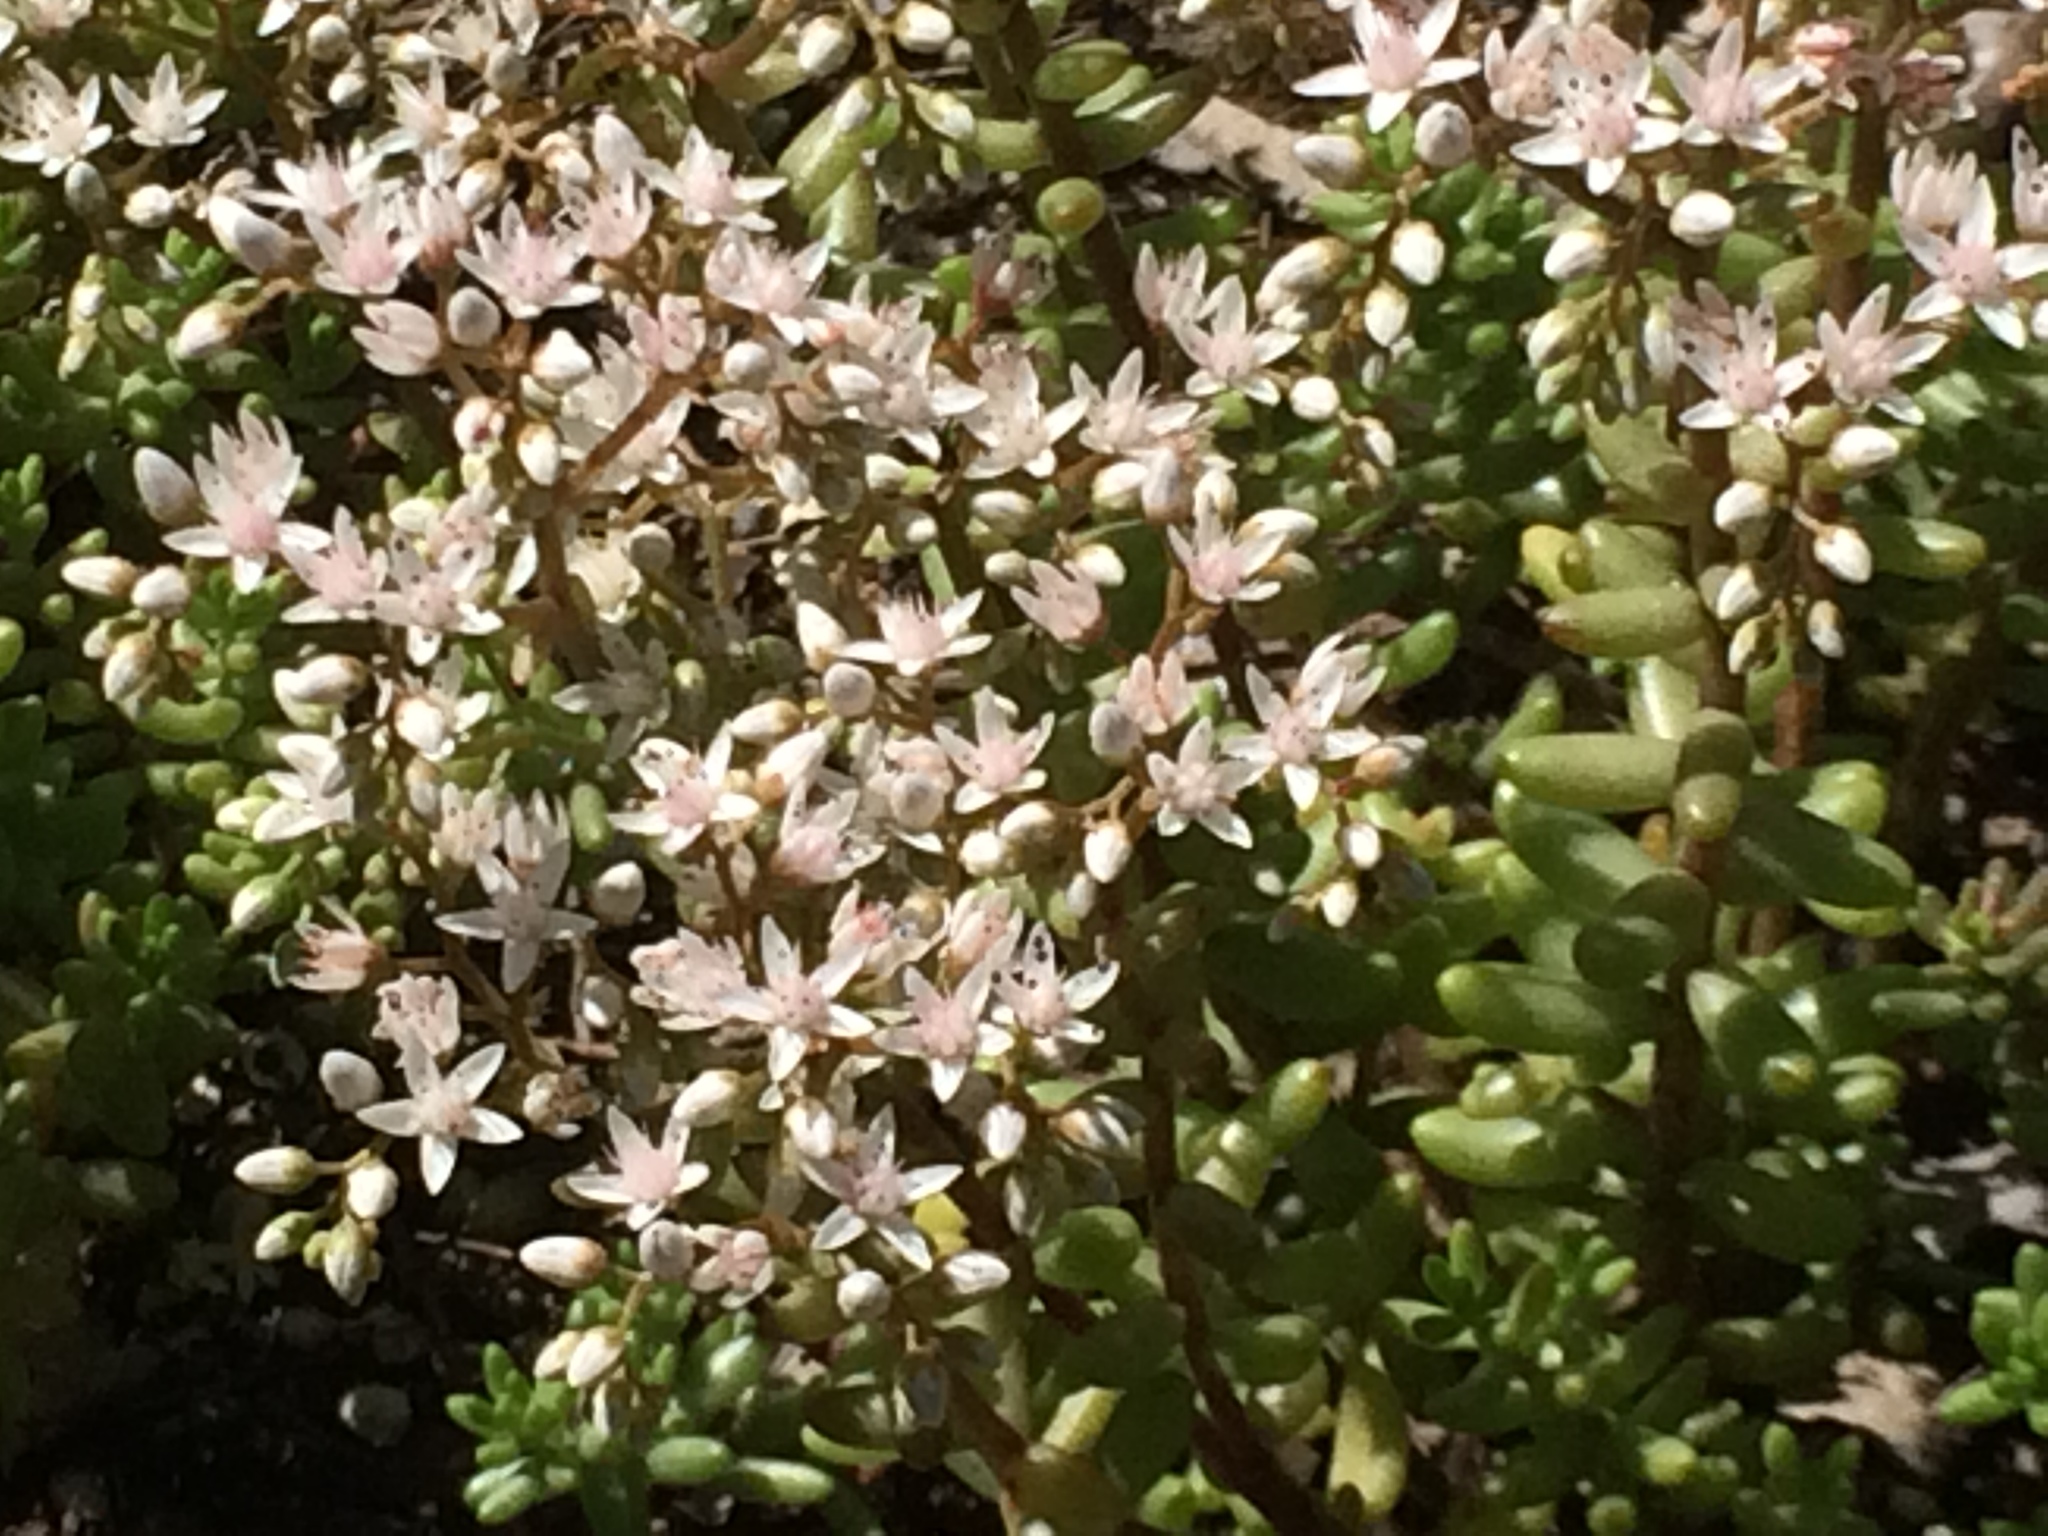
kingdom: Plantae
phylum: Tracheophyta
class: Magnoliopsida
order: Saxifragales
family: Crassulaceae
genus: Sedum
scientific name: Sedum album
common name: White stonecrop
